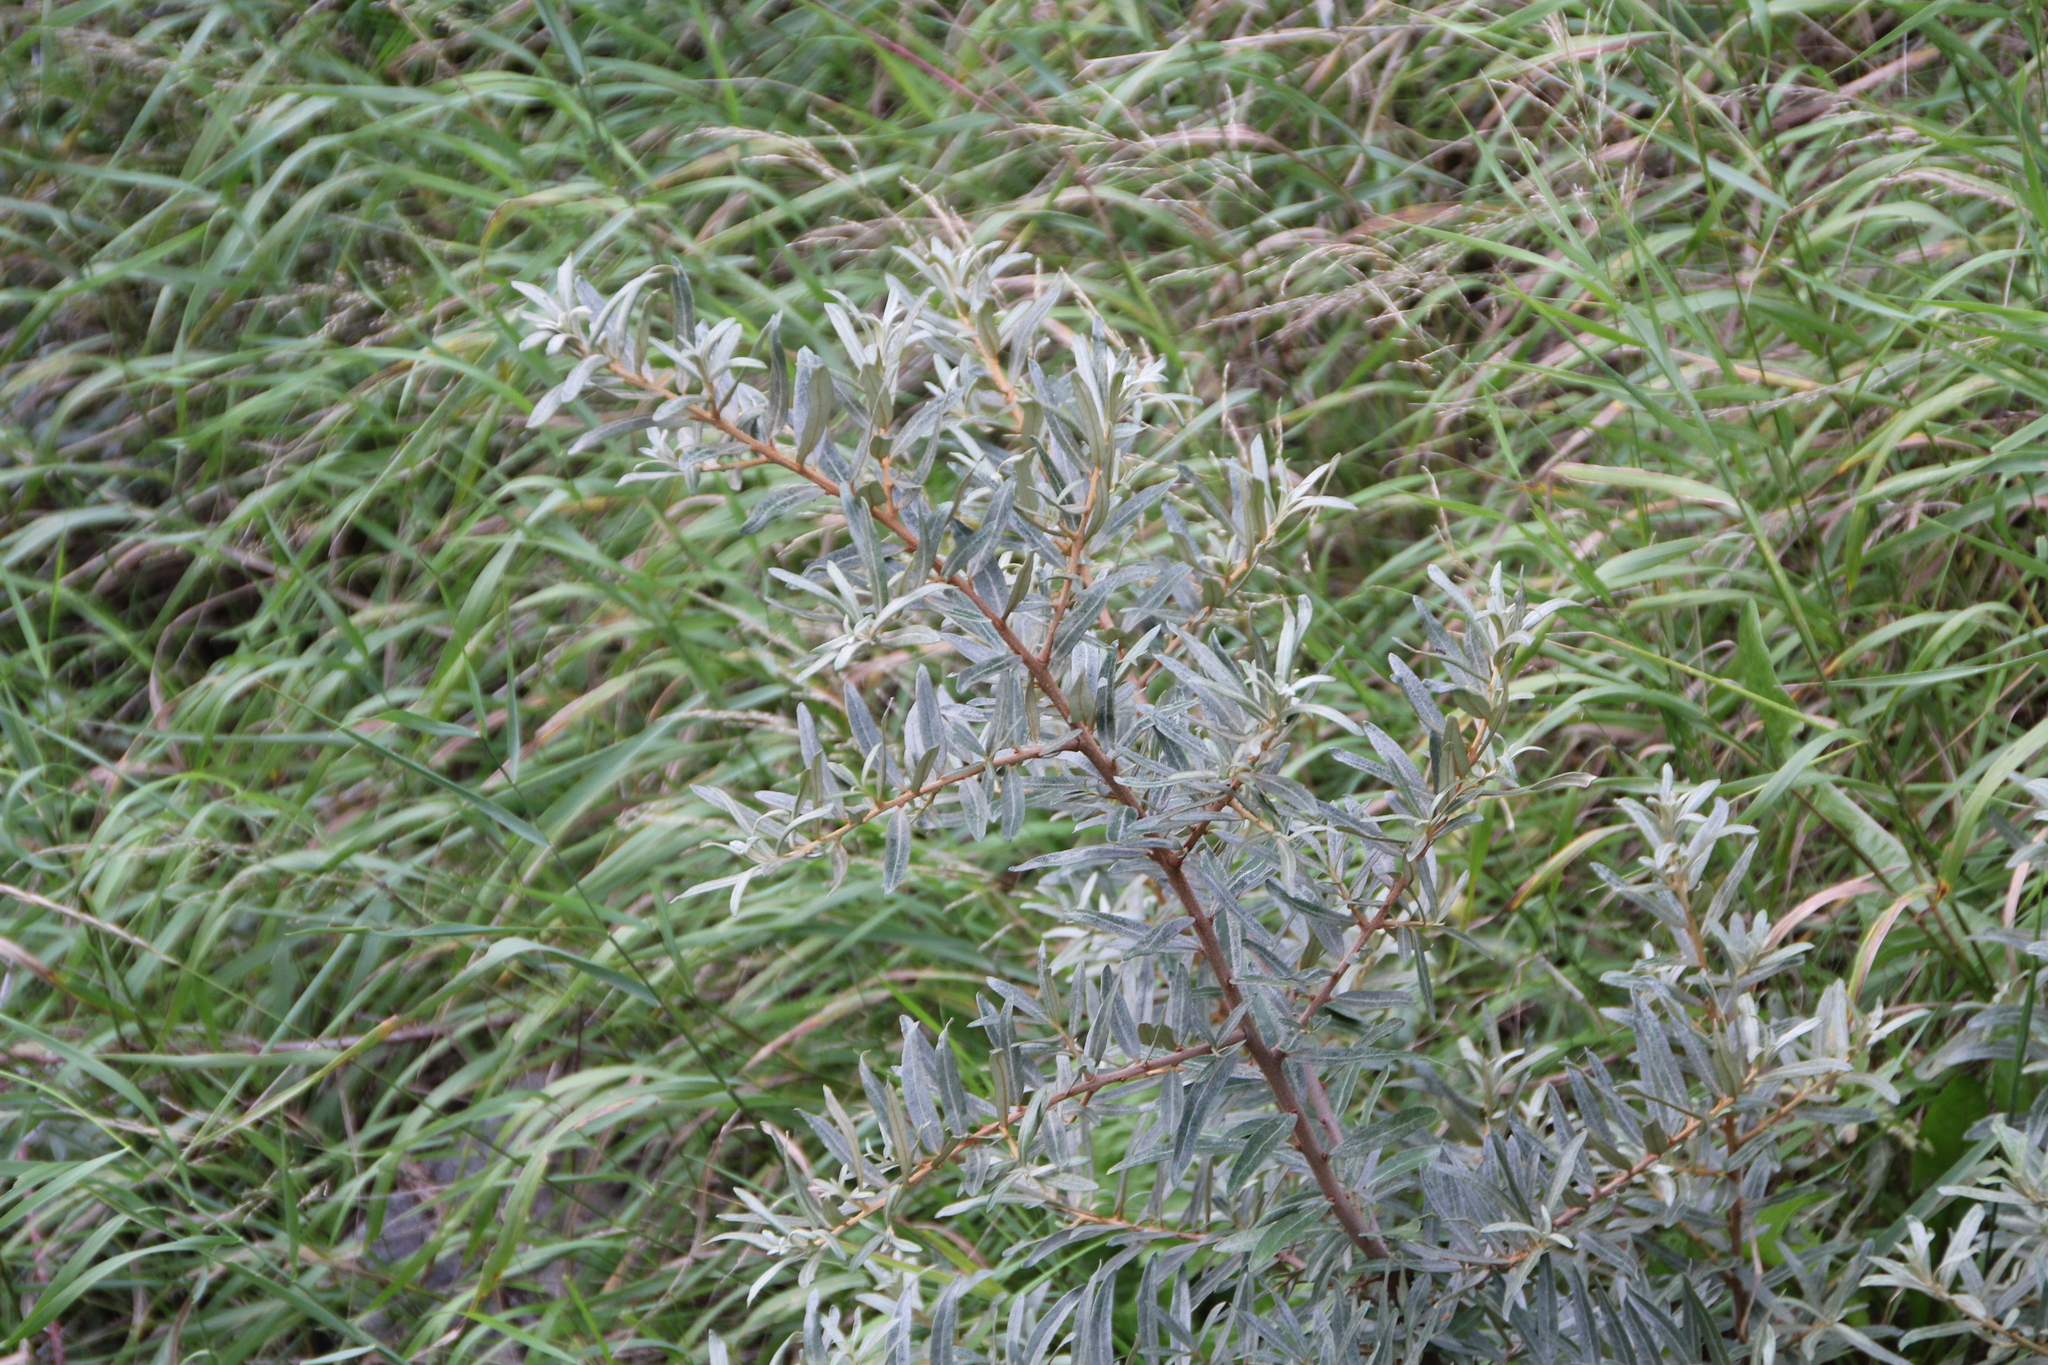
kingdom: Plantae
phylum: Tracheophyta
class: Magnoliopsida
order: Rosales
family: Elaeagnaceae
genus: Hippophae
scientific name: Hippophae rhamnoides
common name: Sea-buckthorn
